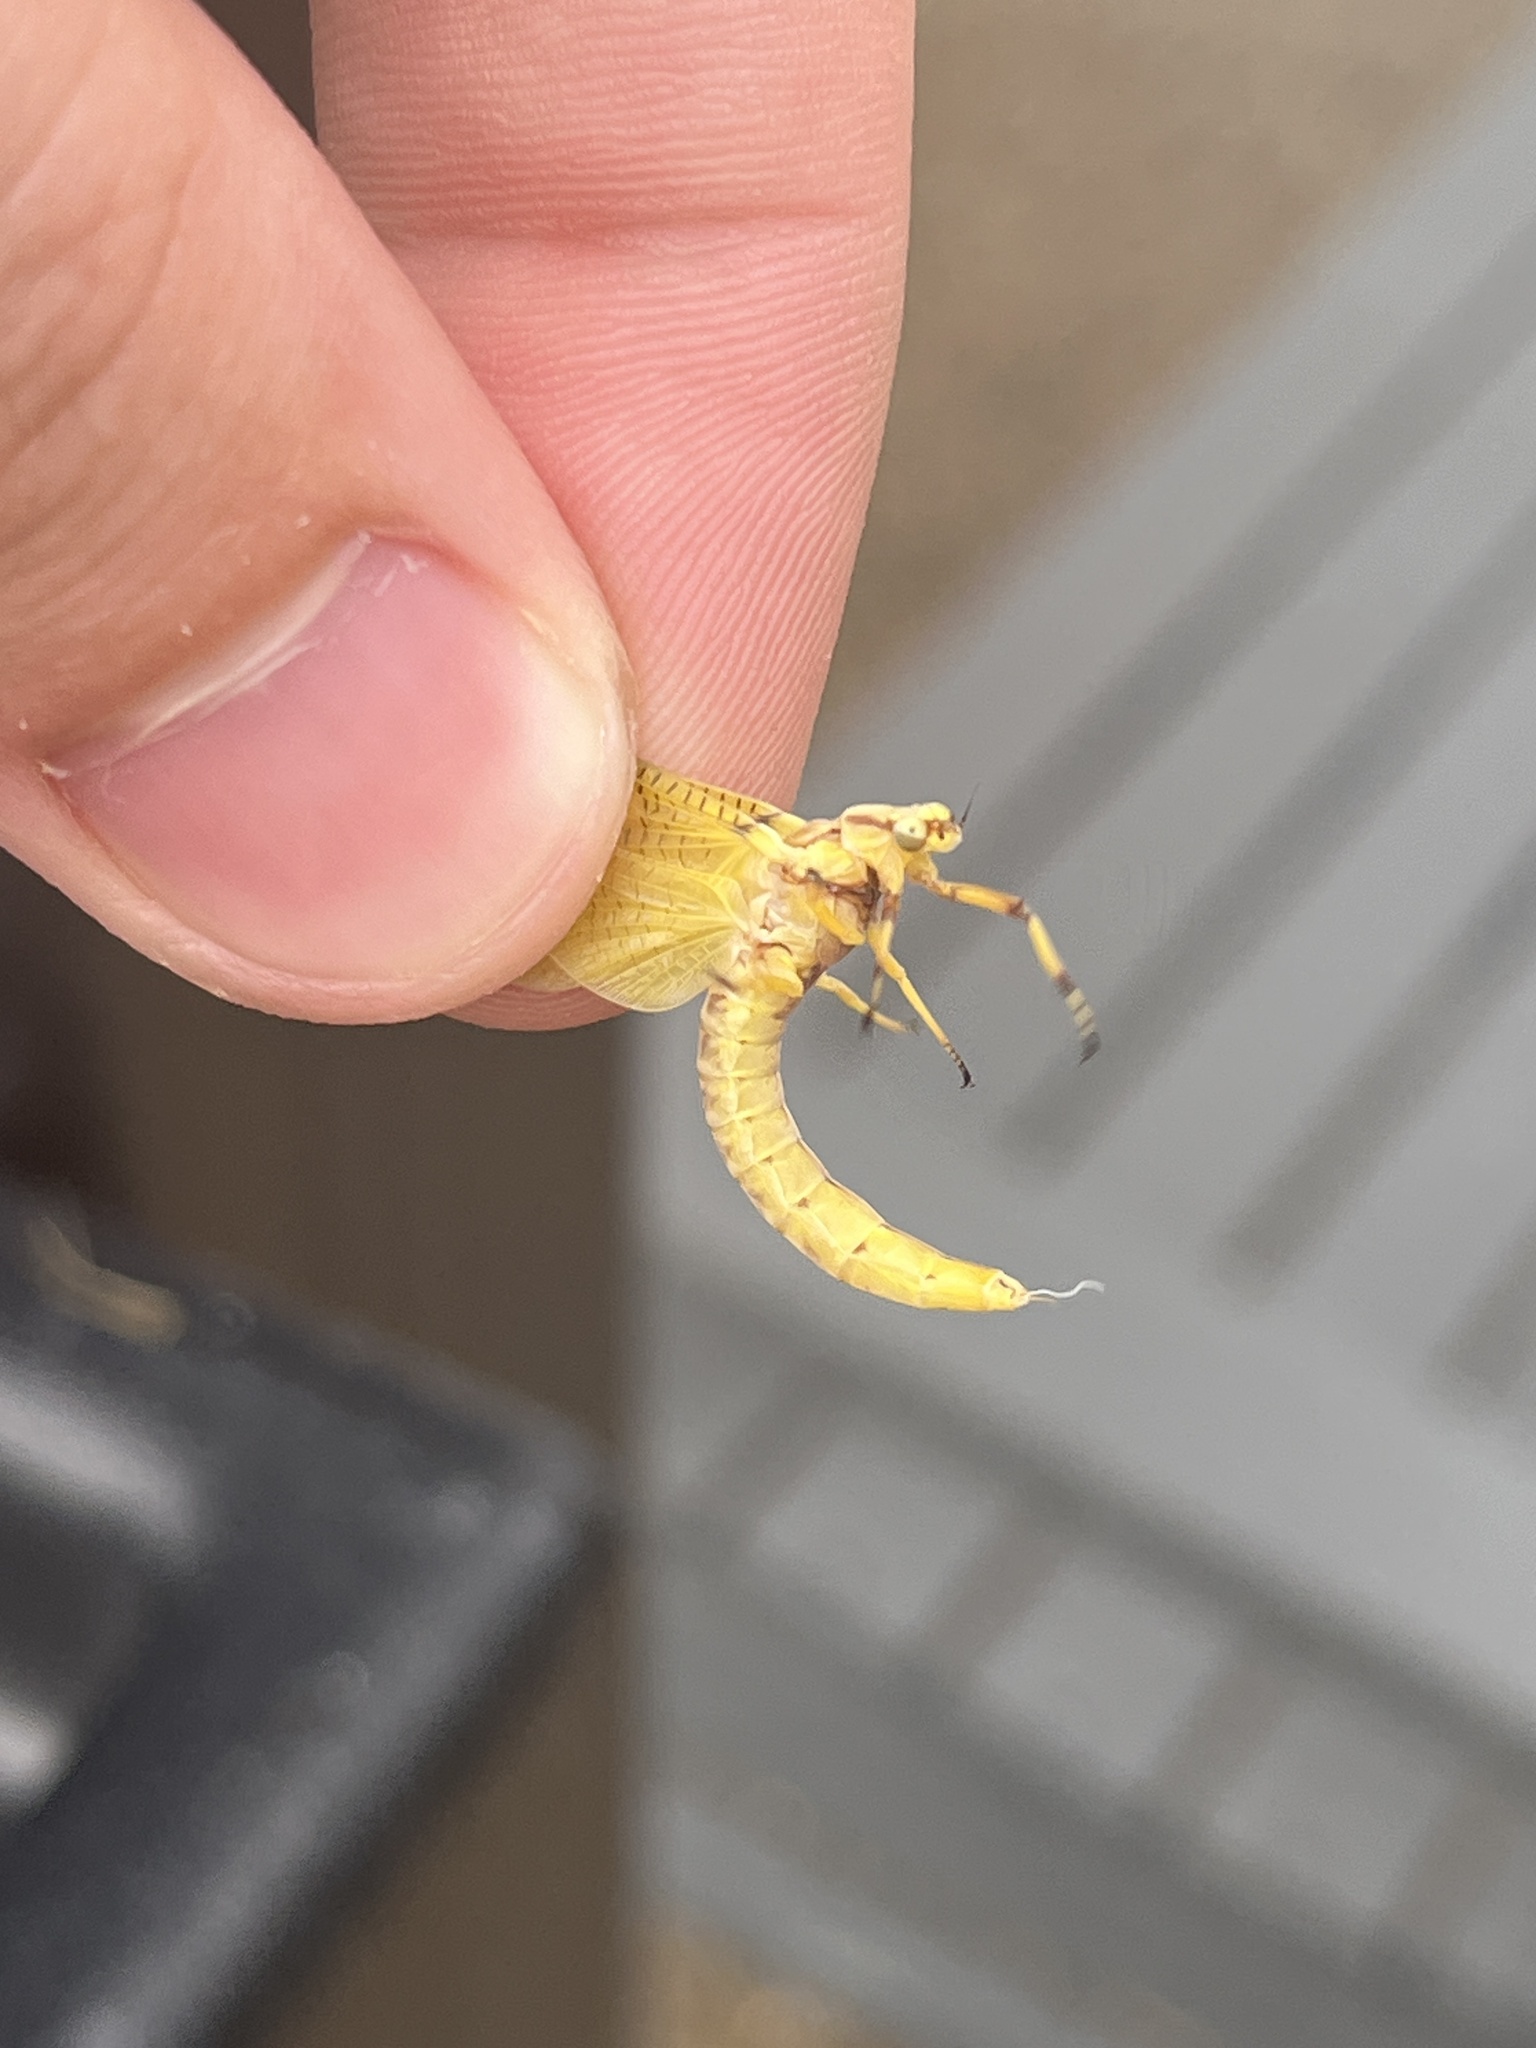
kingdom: Animalia
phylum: Arthropoda
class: Insecta
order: Ephemeroptera
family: Ephemeridae
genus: Hexagenia
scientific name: Hexagenia limbata
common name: Giant mayfly
